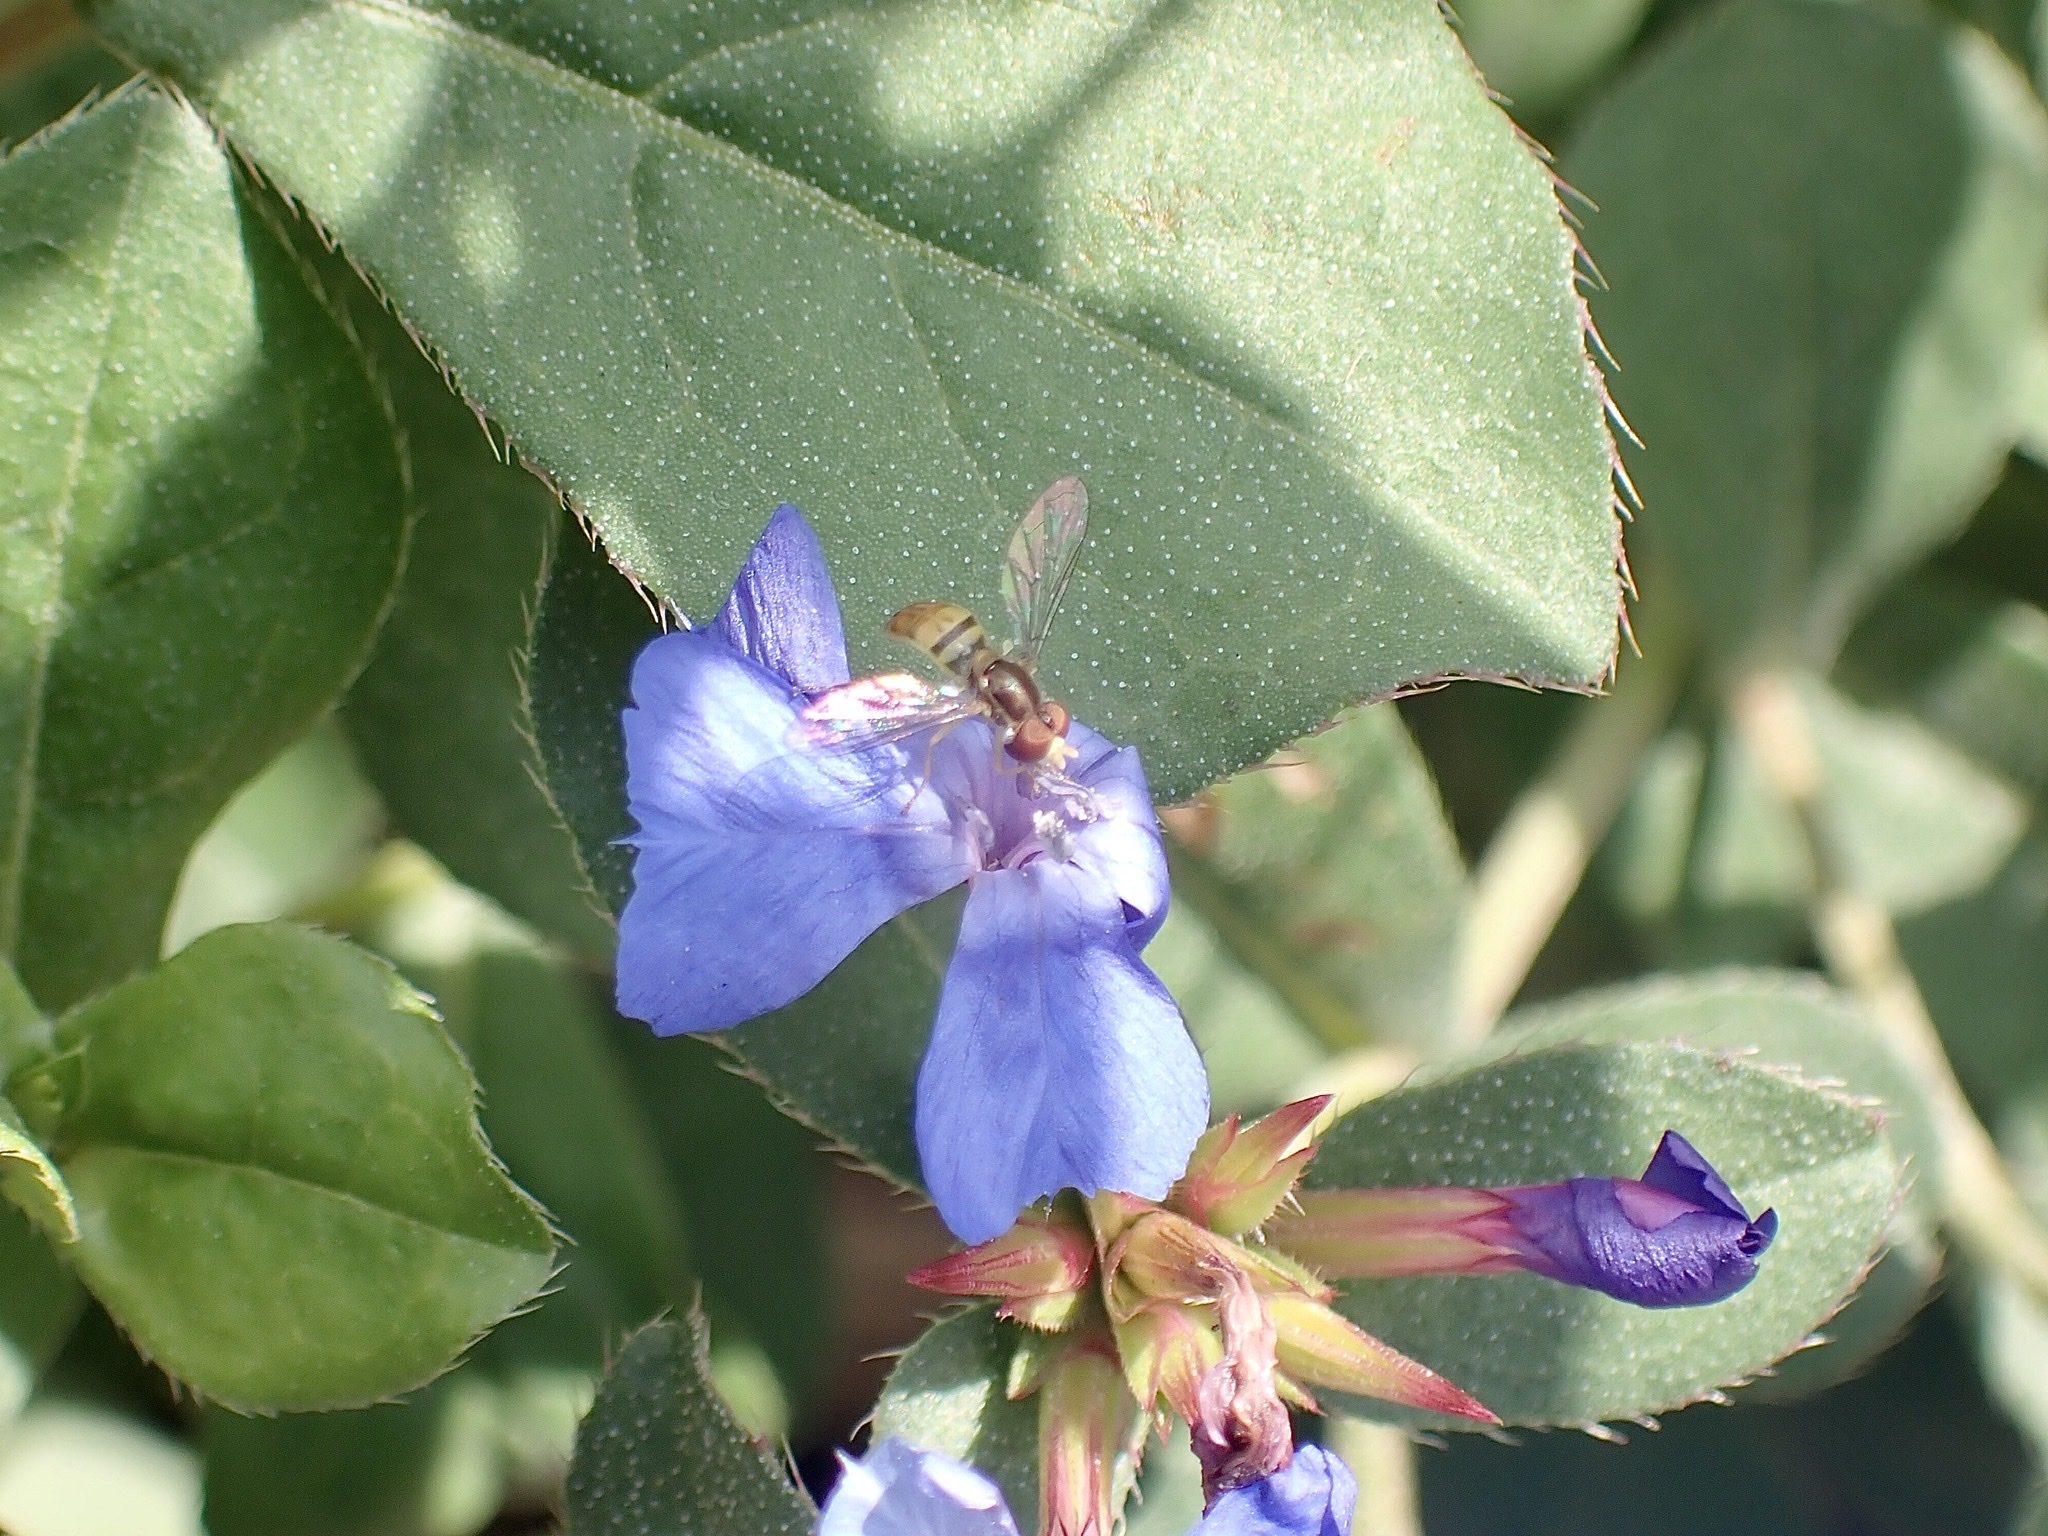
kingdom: Animalia
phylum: Arthropoda
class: Insecta
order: Diptera
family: Syrphidae
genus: Toxomerus
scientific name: Toxomerus marginatus
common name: Syrphid fly
